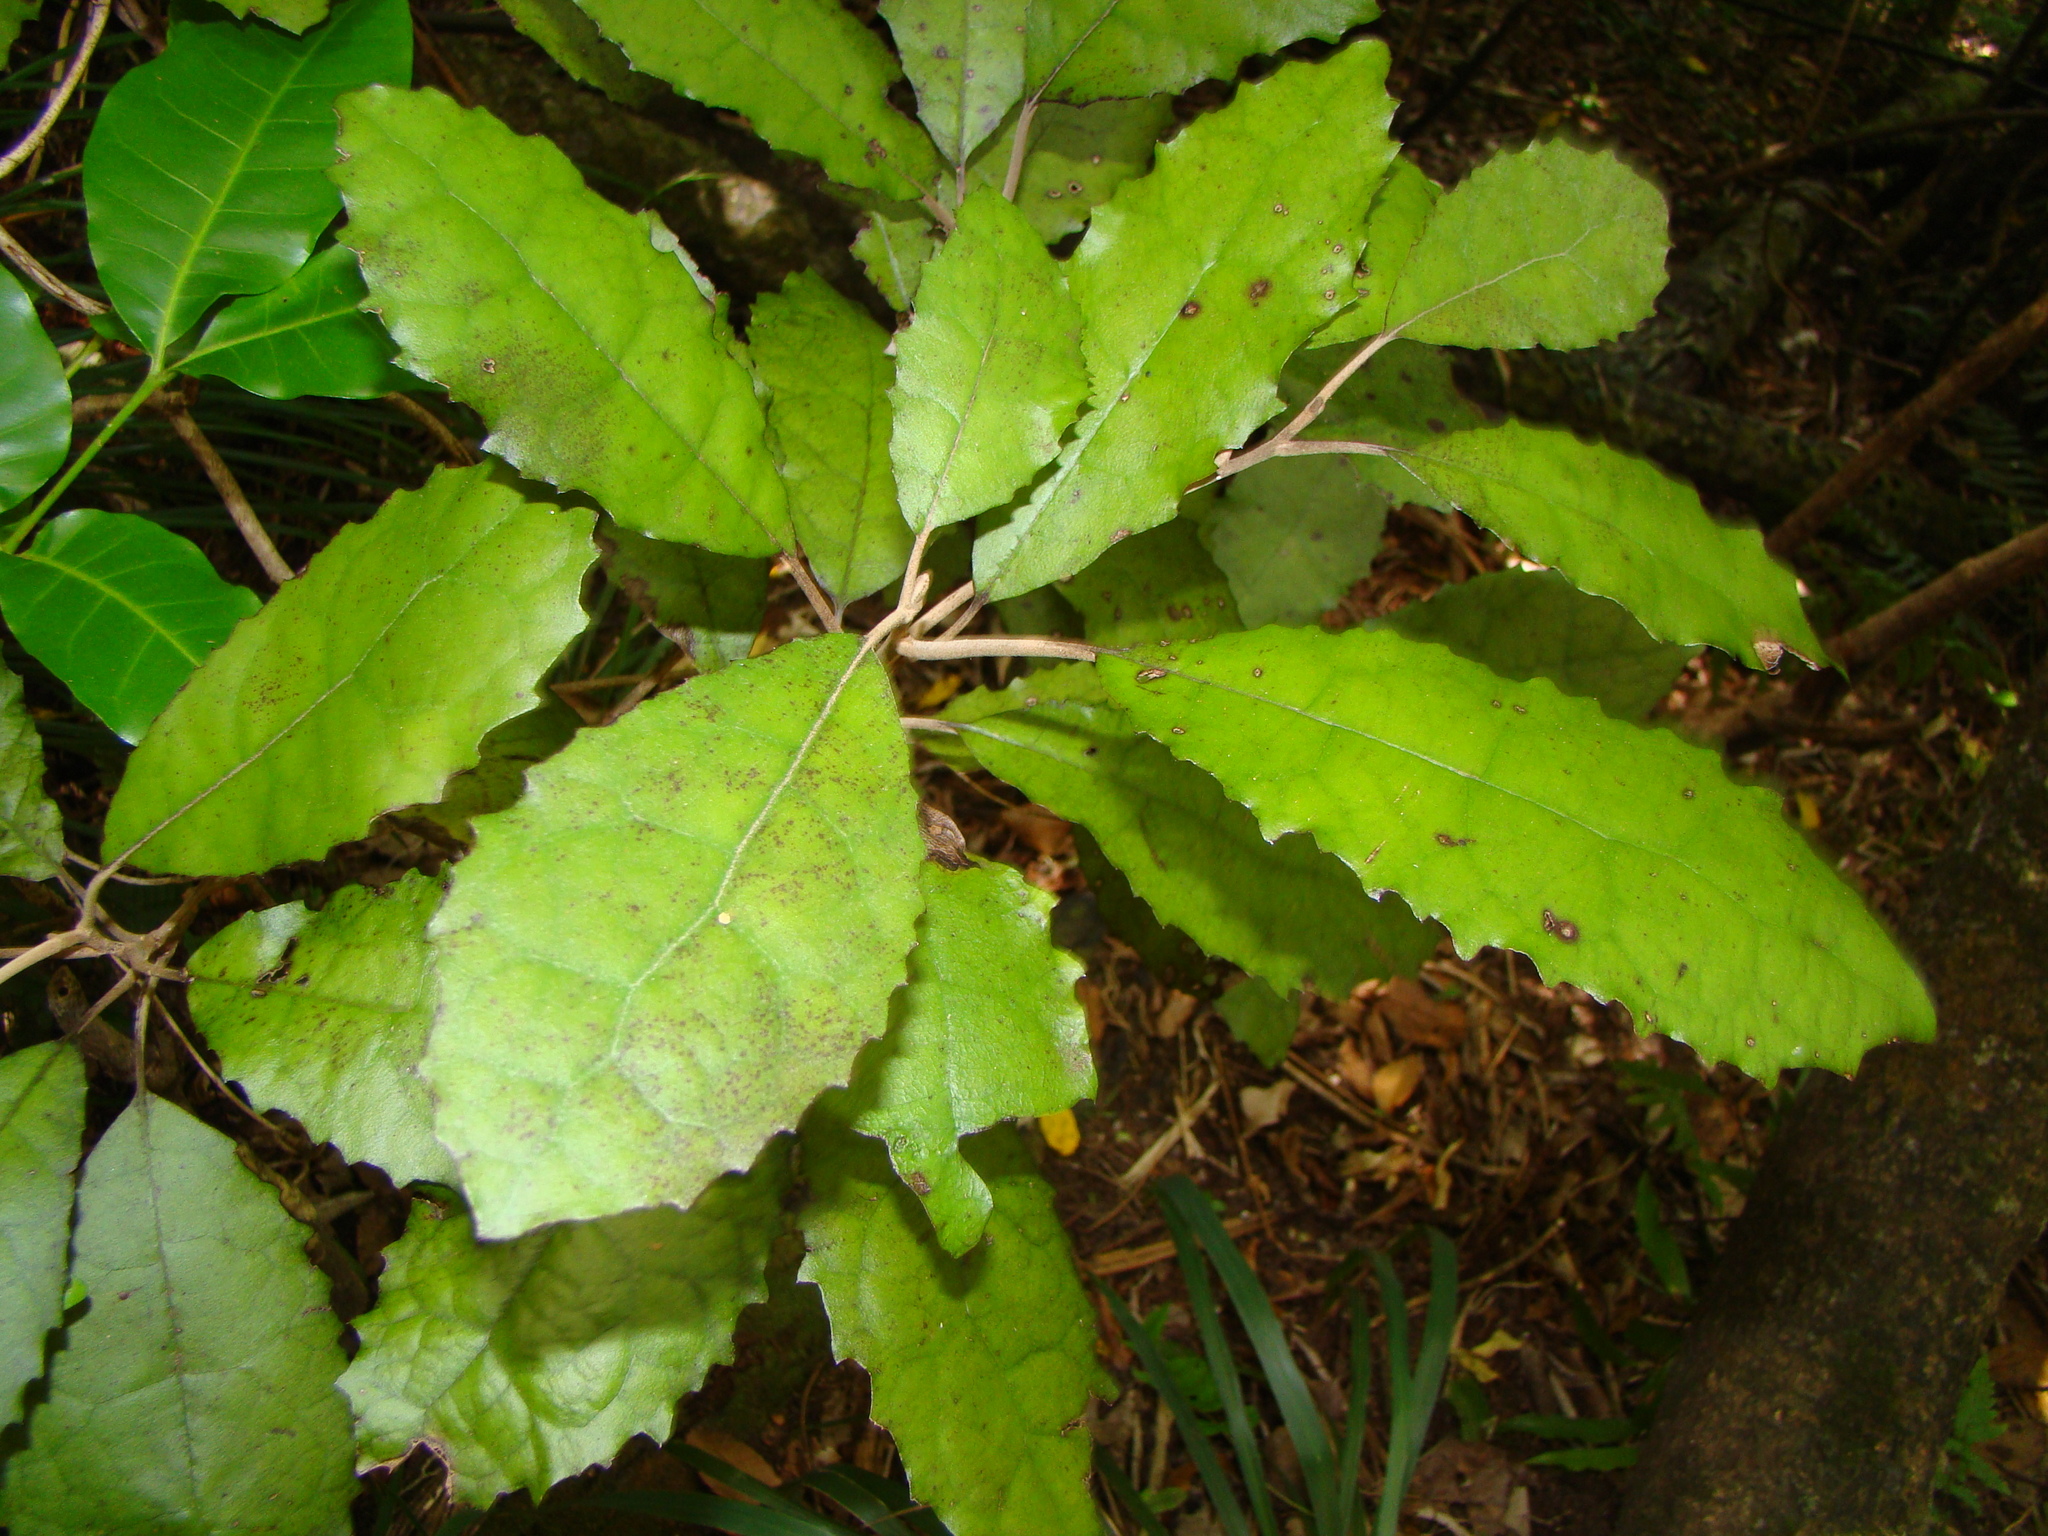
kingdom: Plantae
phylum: Tracheophyta
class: Magnoliopsida
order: Asterales
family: Asteraceae
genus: Olearia
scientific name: Olearia rani
